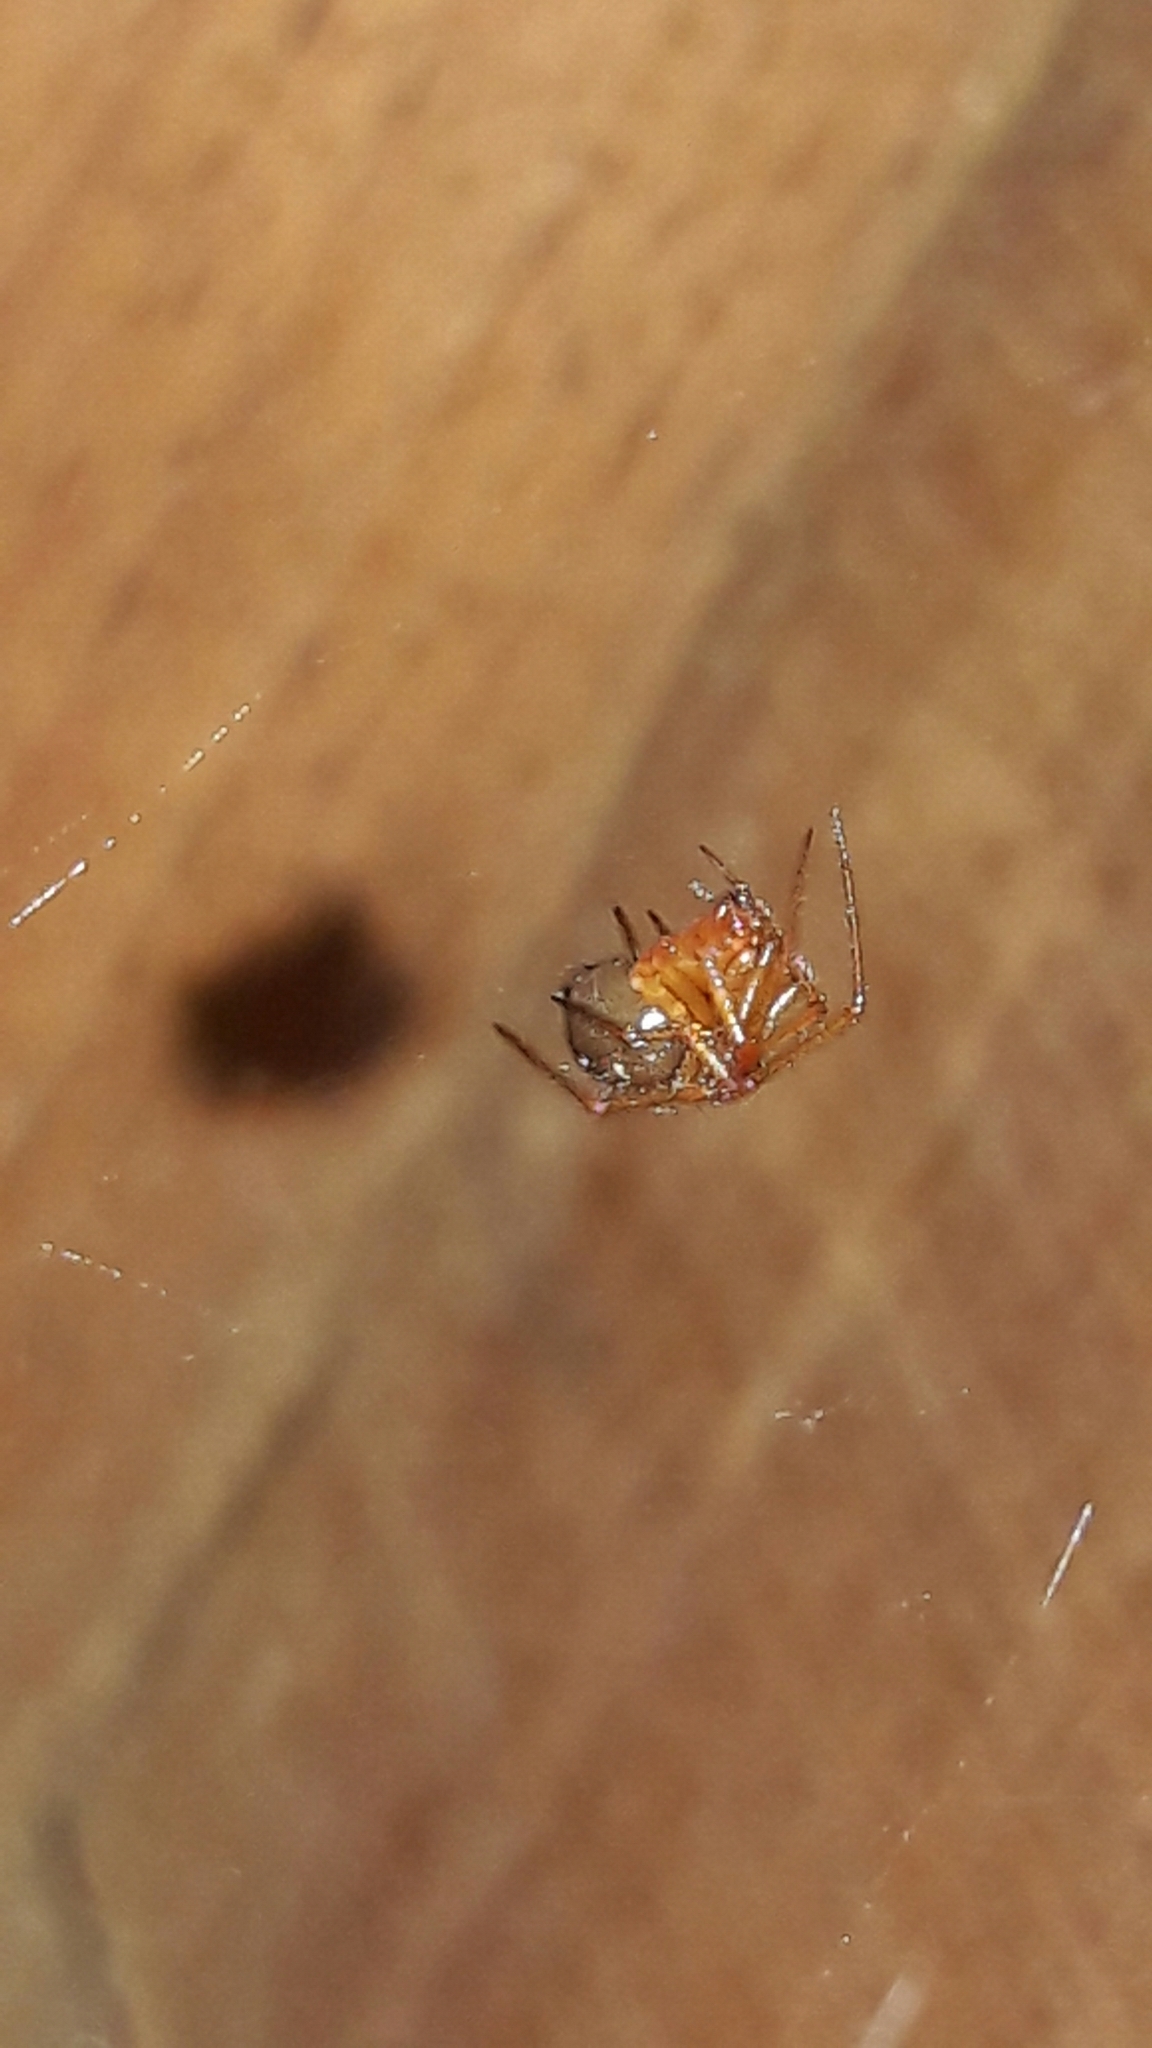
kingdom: Animalia
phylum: Arthropoda
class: Arachnida
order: Araneae
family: Theridiidae
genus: Nesticodes
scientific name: Nesticodes rufipes
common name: Cobweb spiders
